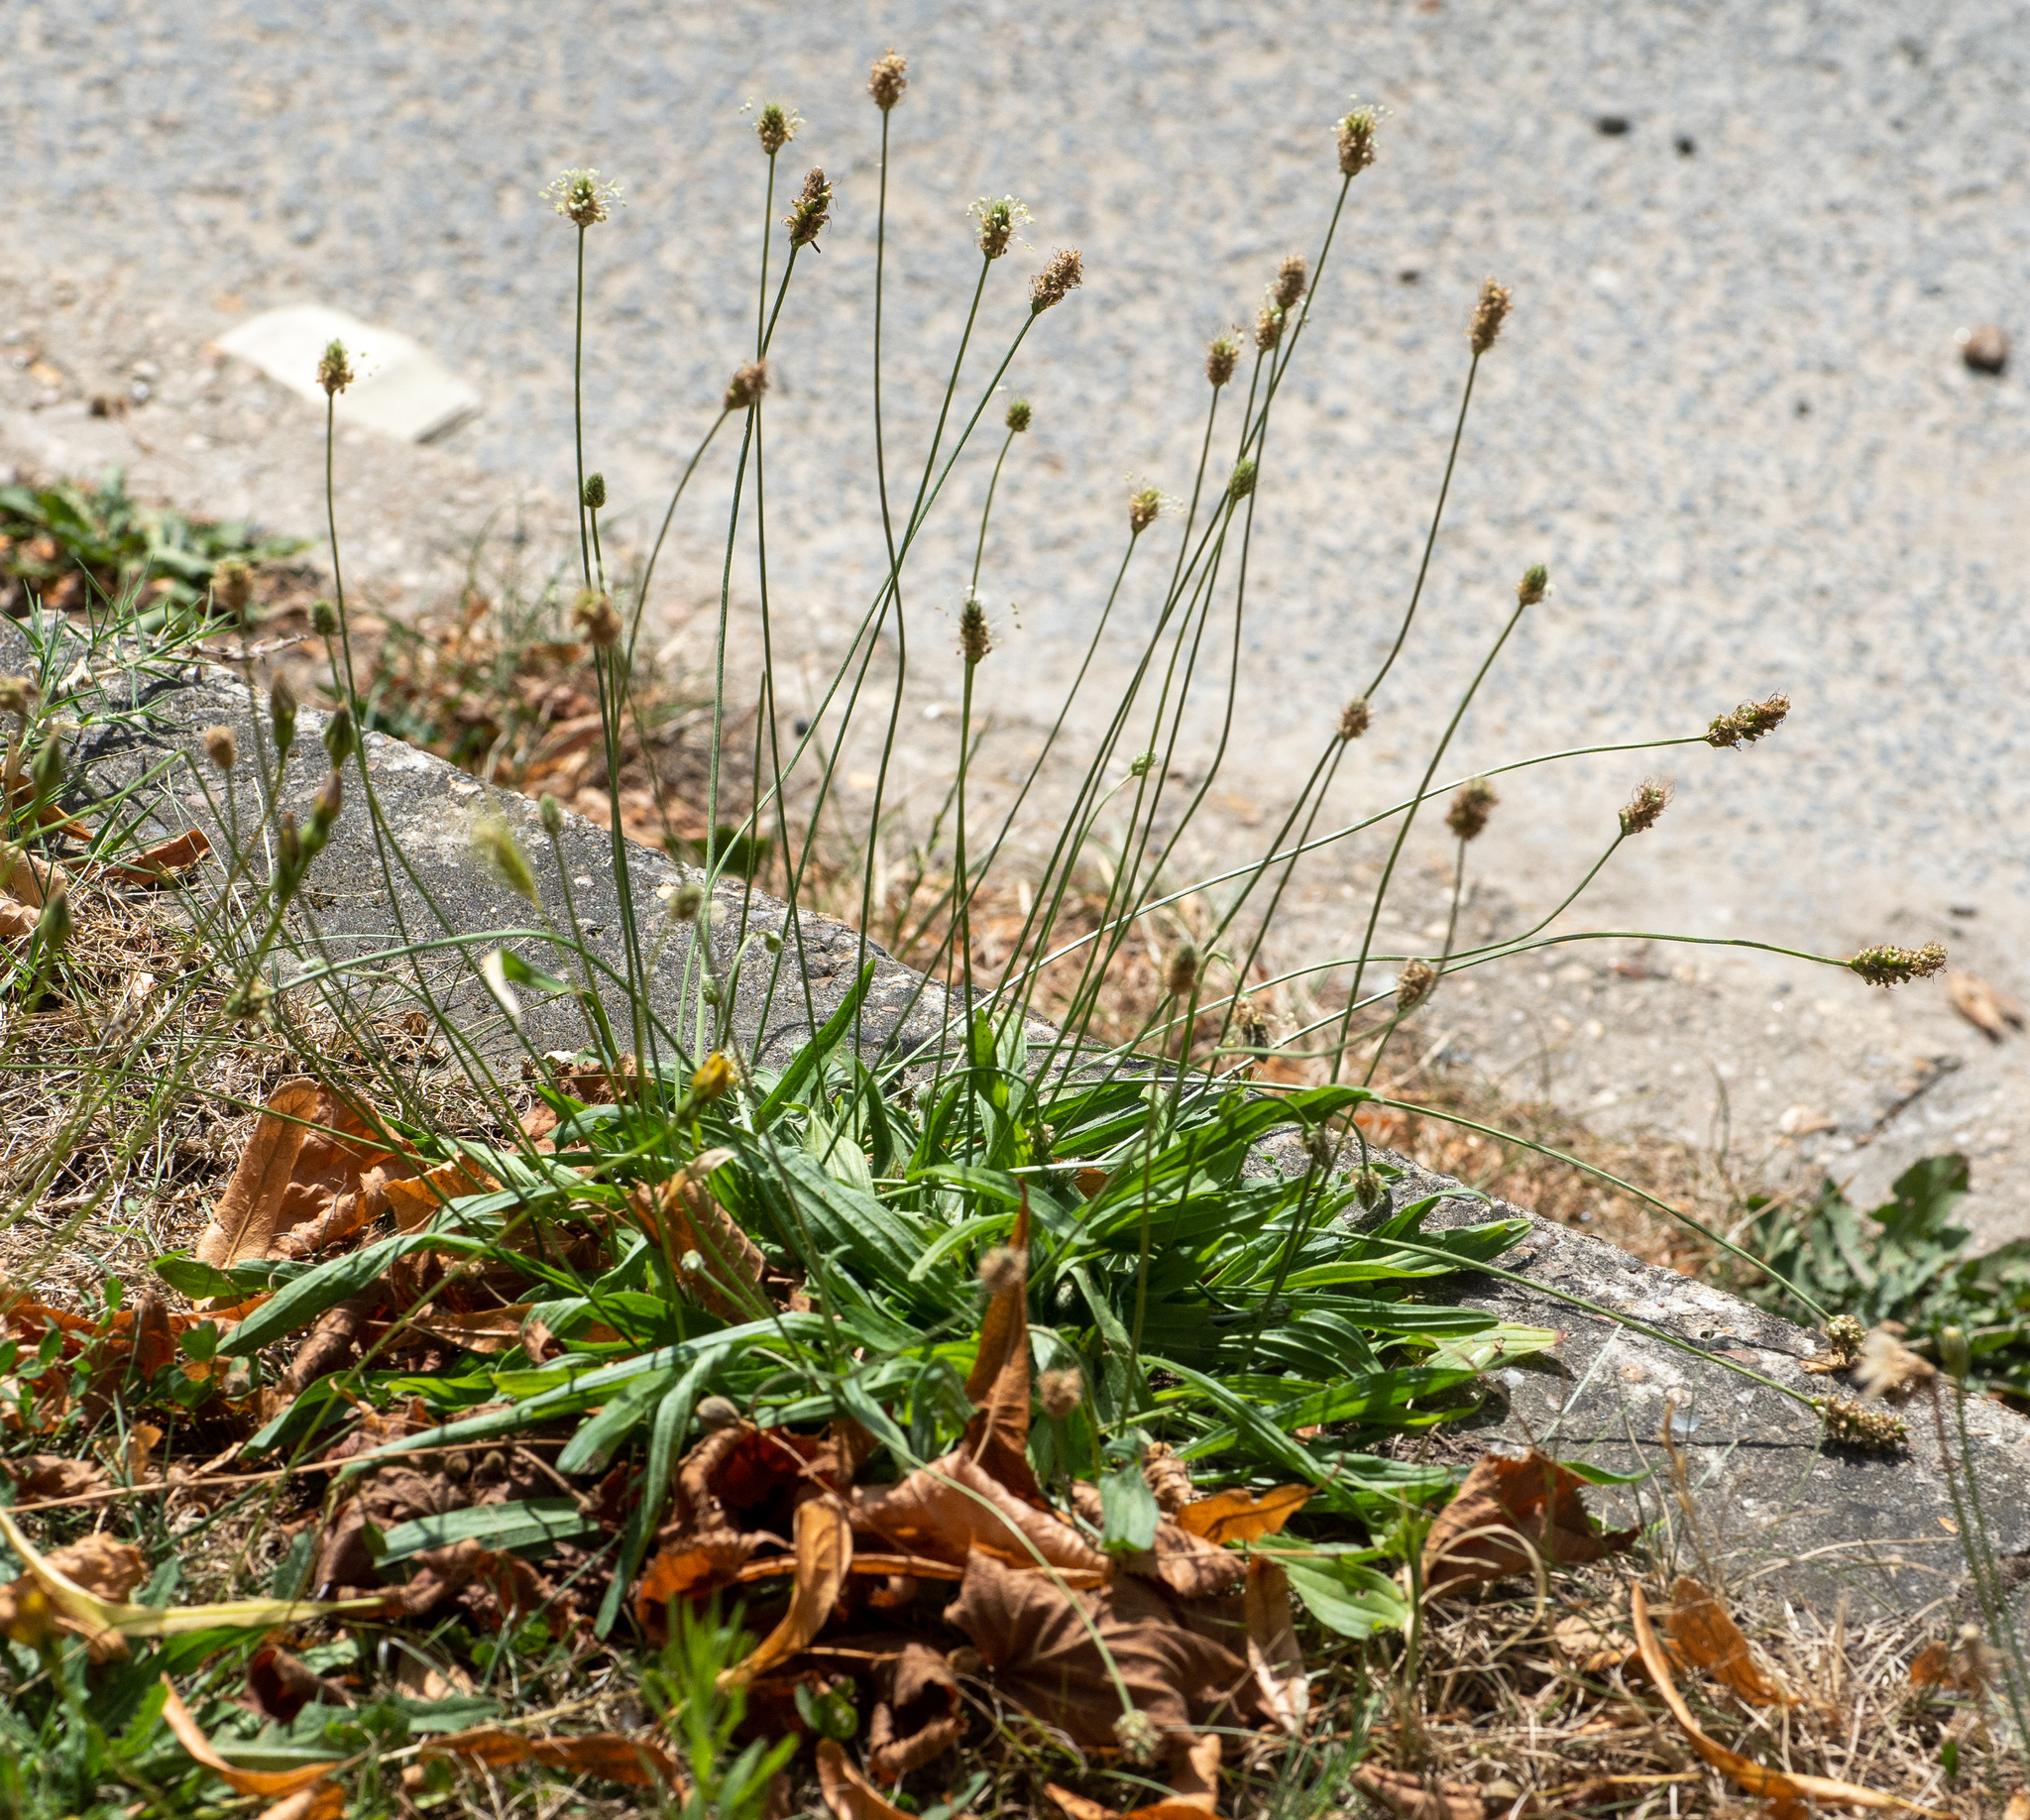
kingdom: Plantae
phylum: Tracheophyta
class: Magnoliopsida
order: Lamiales
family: Plantaginaceae
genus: Plantago
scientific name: Plantago lanceolata
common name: Ribwort plantain
